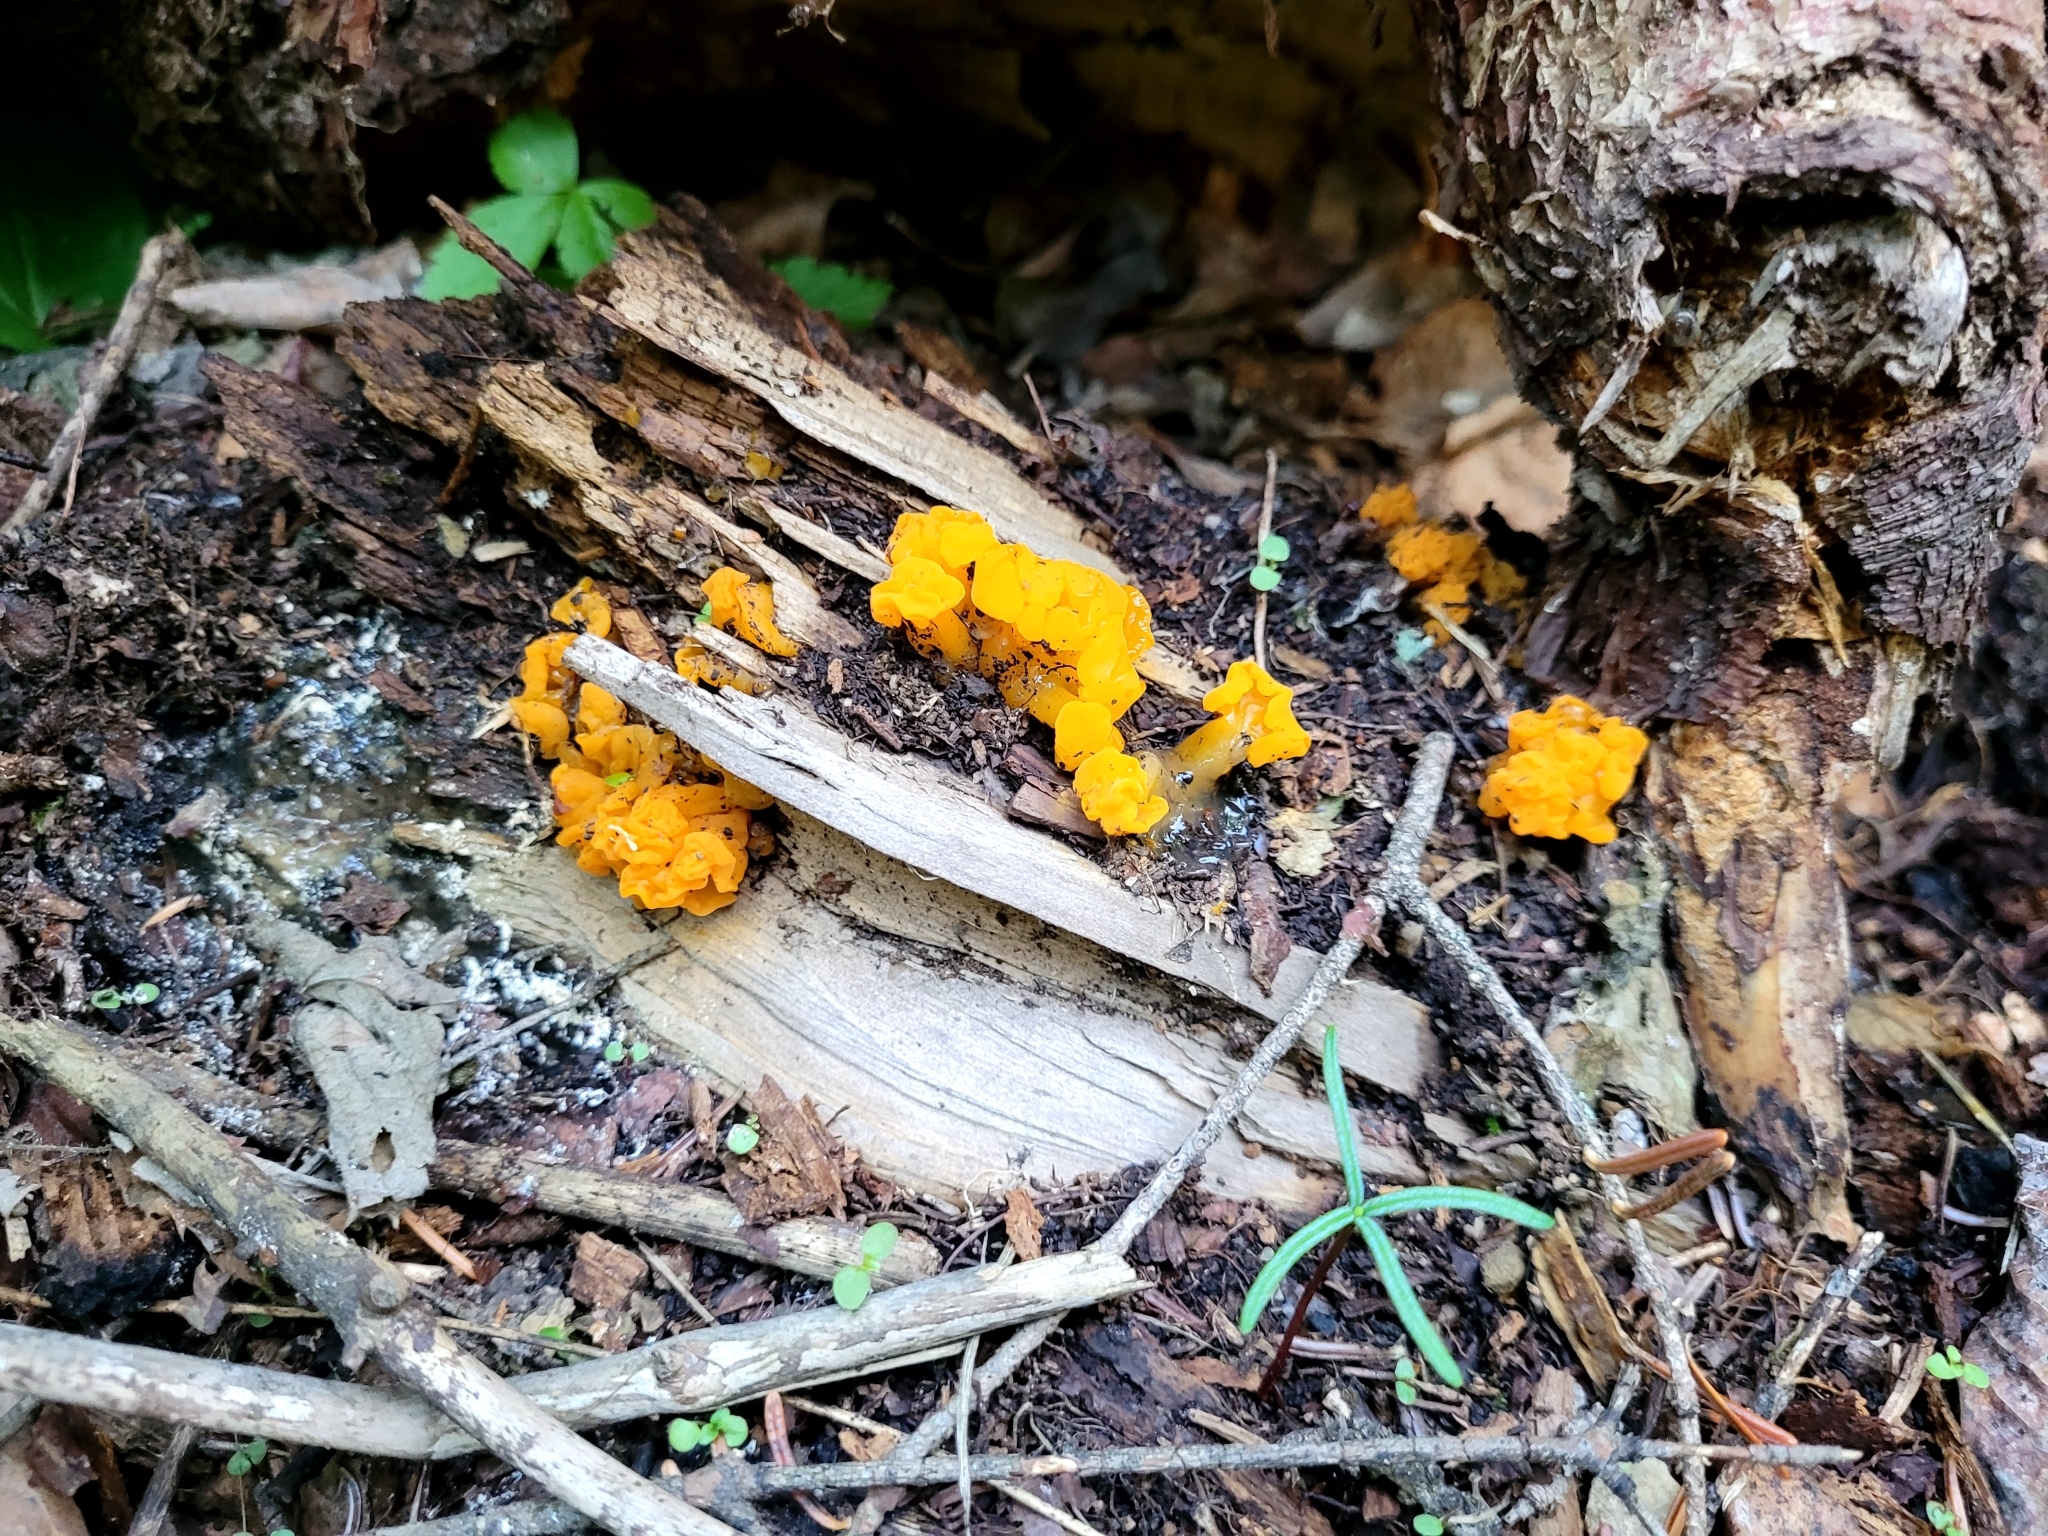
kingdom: Fungi
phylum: Basidiomycota
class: Dacrymycetes
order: Dacrymycetales
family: Dacrymycetaceae
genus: Dacrymyces
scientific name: Dacrymyces chrysospermus
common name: Orange jelly spot
